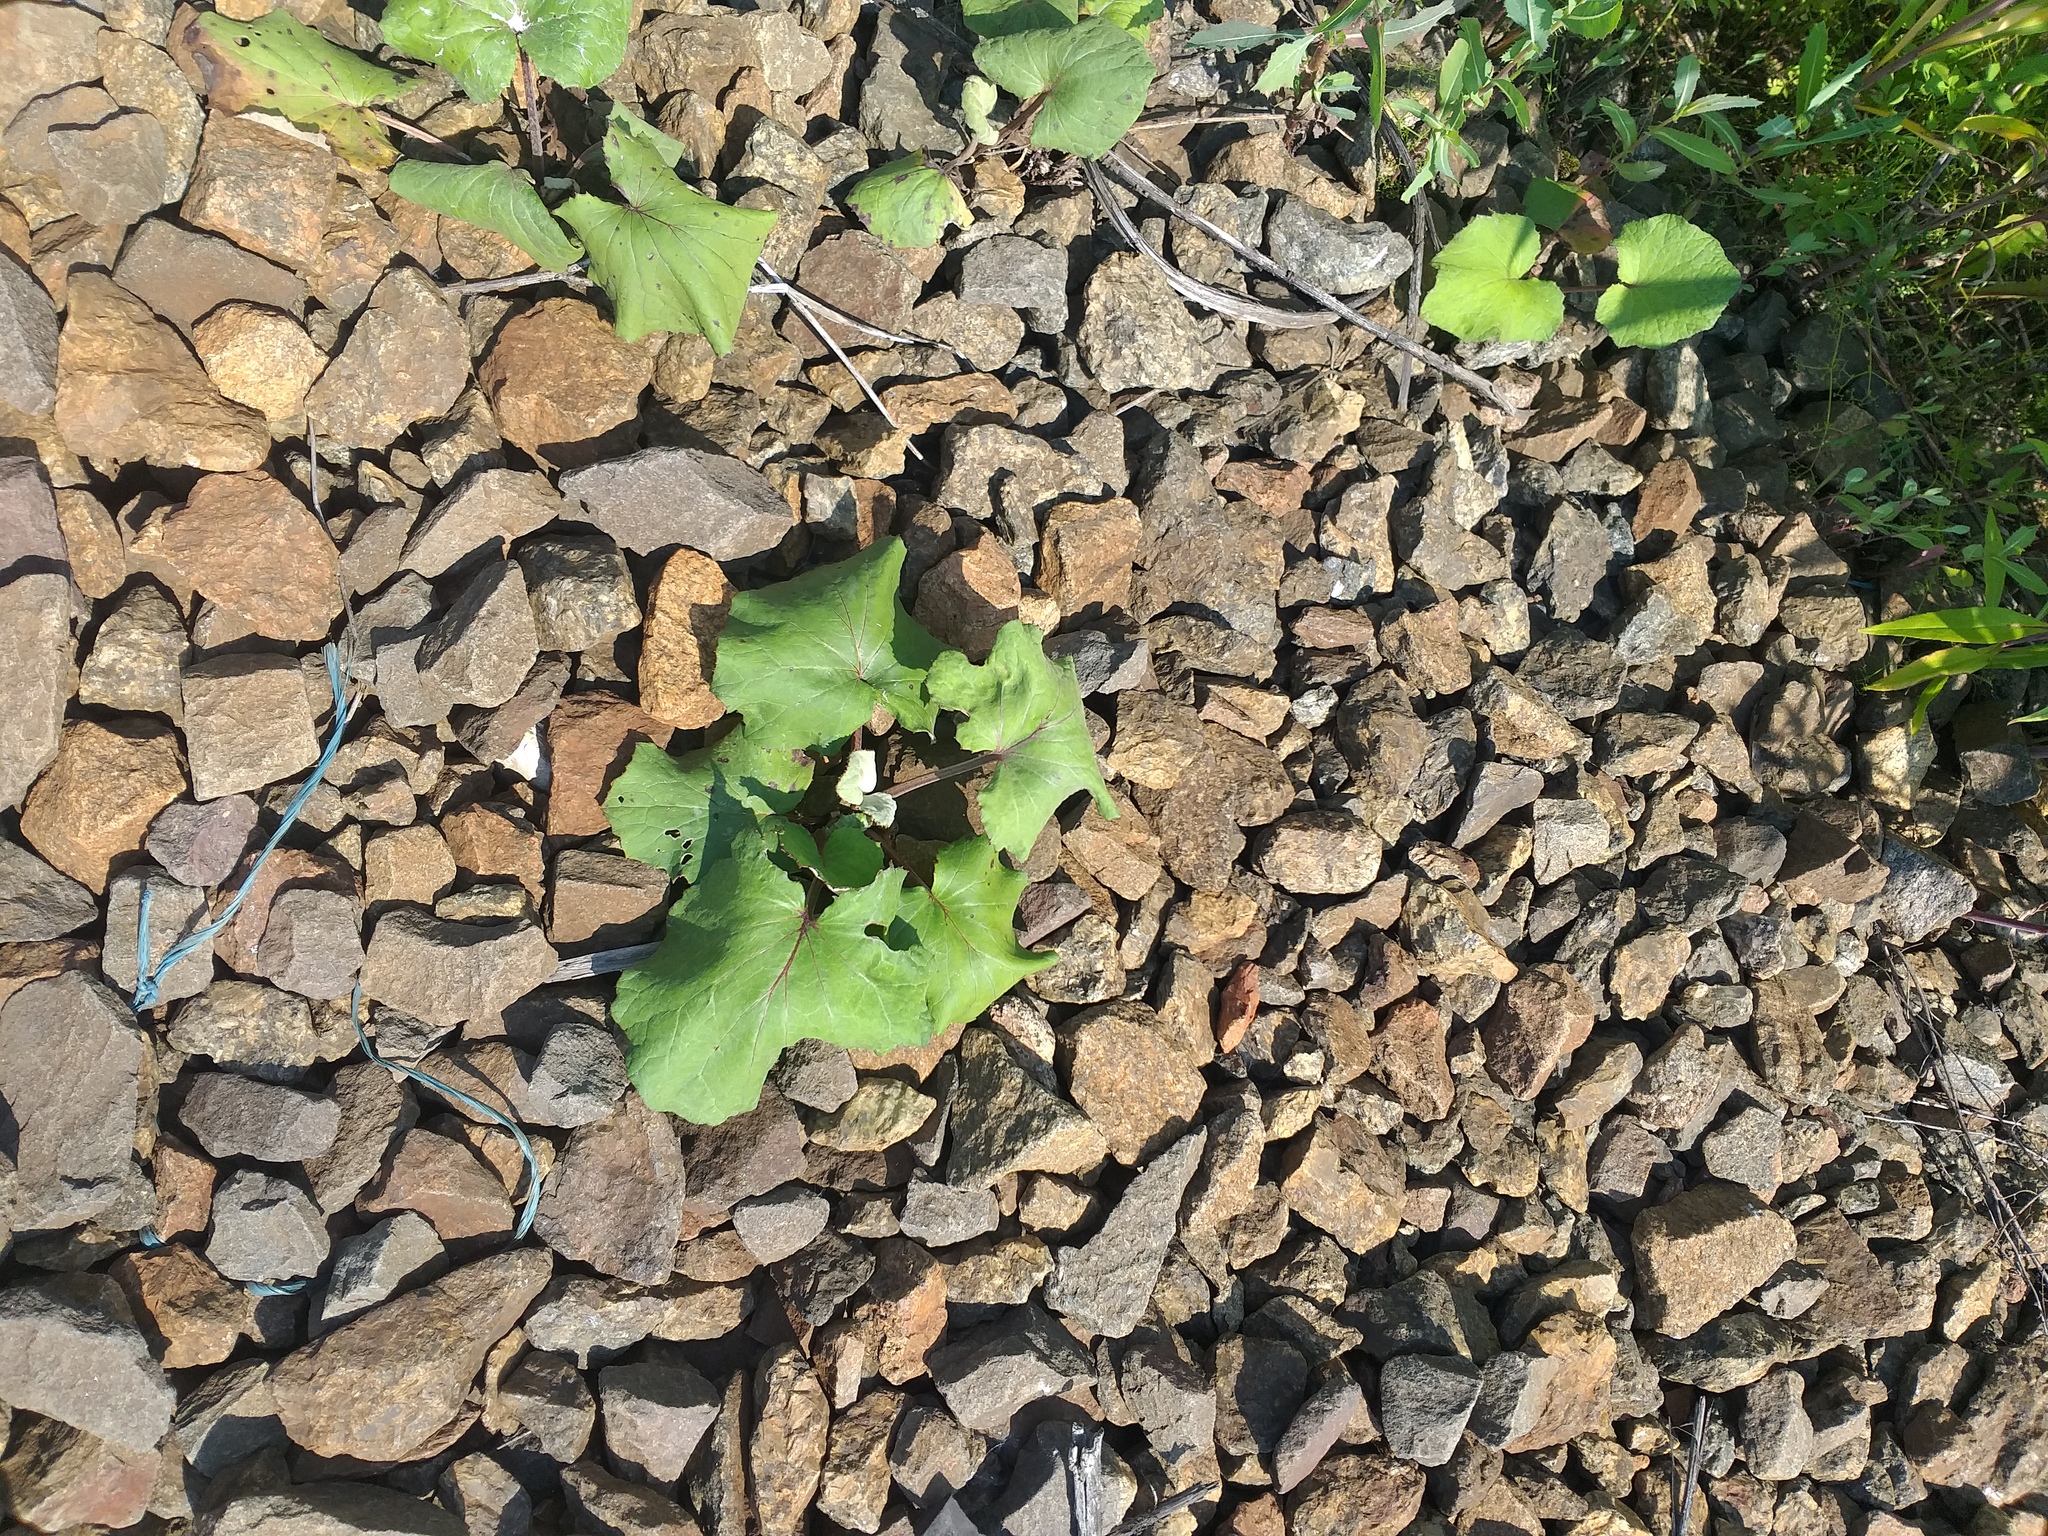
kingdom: Plantae
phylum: Tracheophyta
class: Magnoliopsida
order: Asterales
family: Asteraceae
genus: Tussilago
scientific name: Tussilago farfara
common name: Coltsfoot
